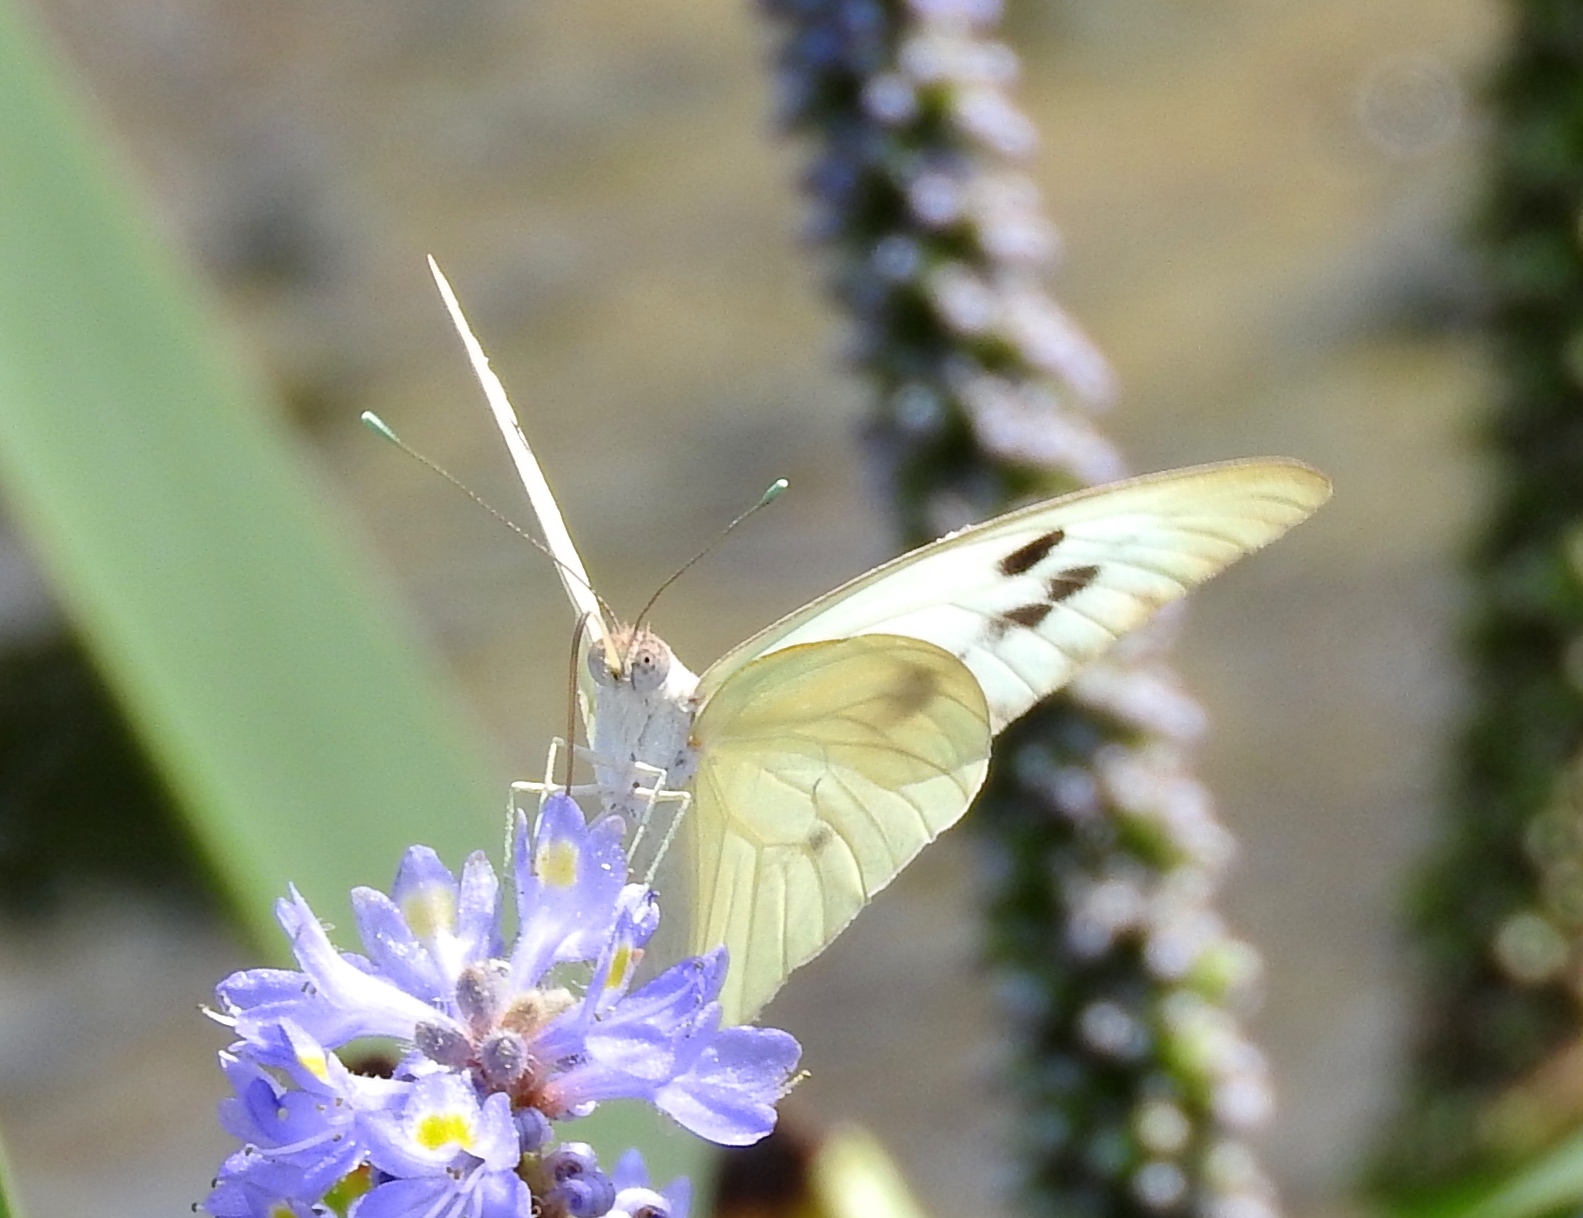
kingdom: Animalia
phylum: Arthropoda
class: Insecta
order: Lepidoptera
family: Pieridae
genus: Ganyra
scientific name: Ganyra josephina
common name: Giant white
